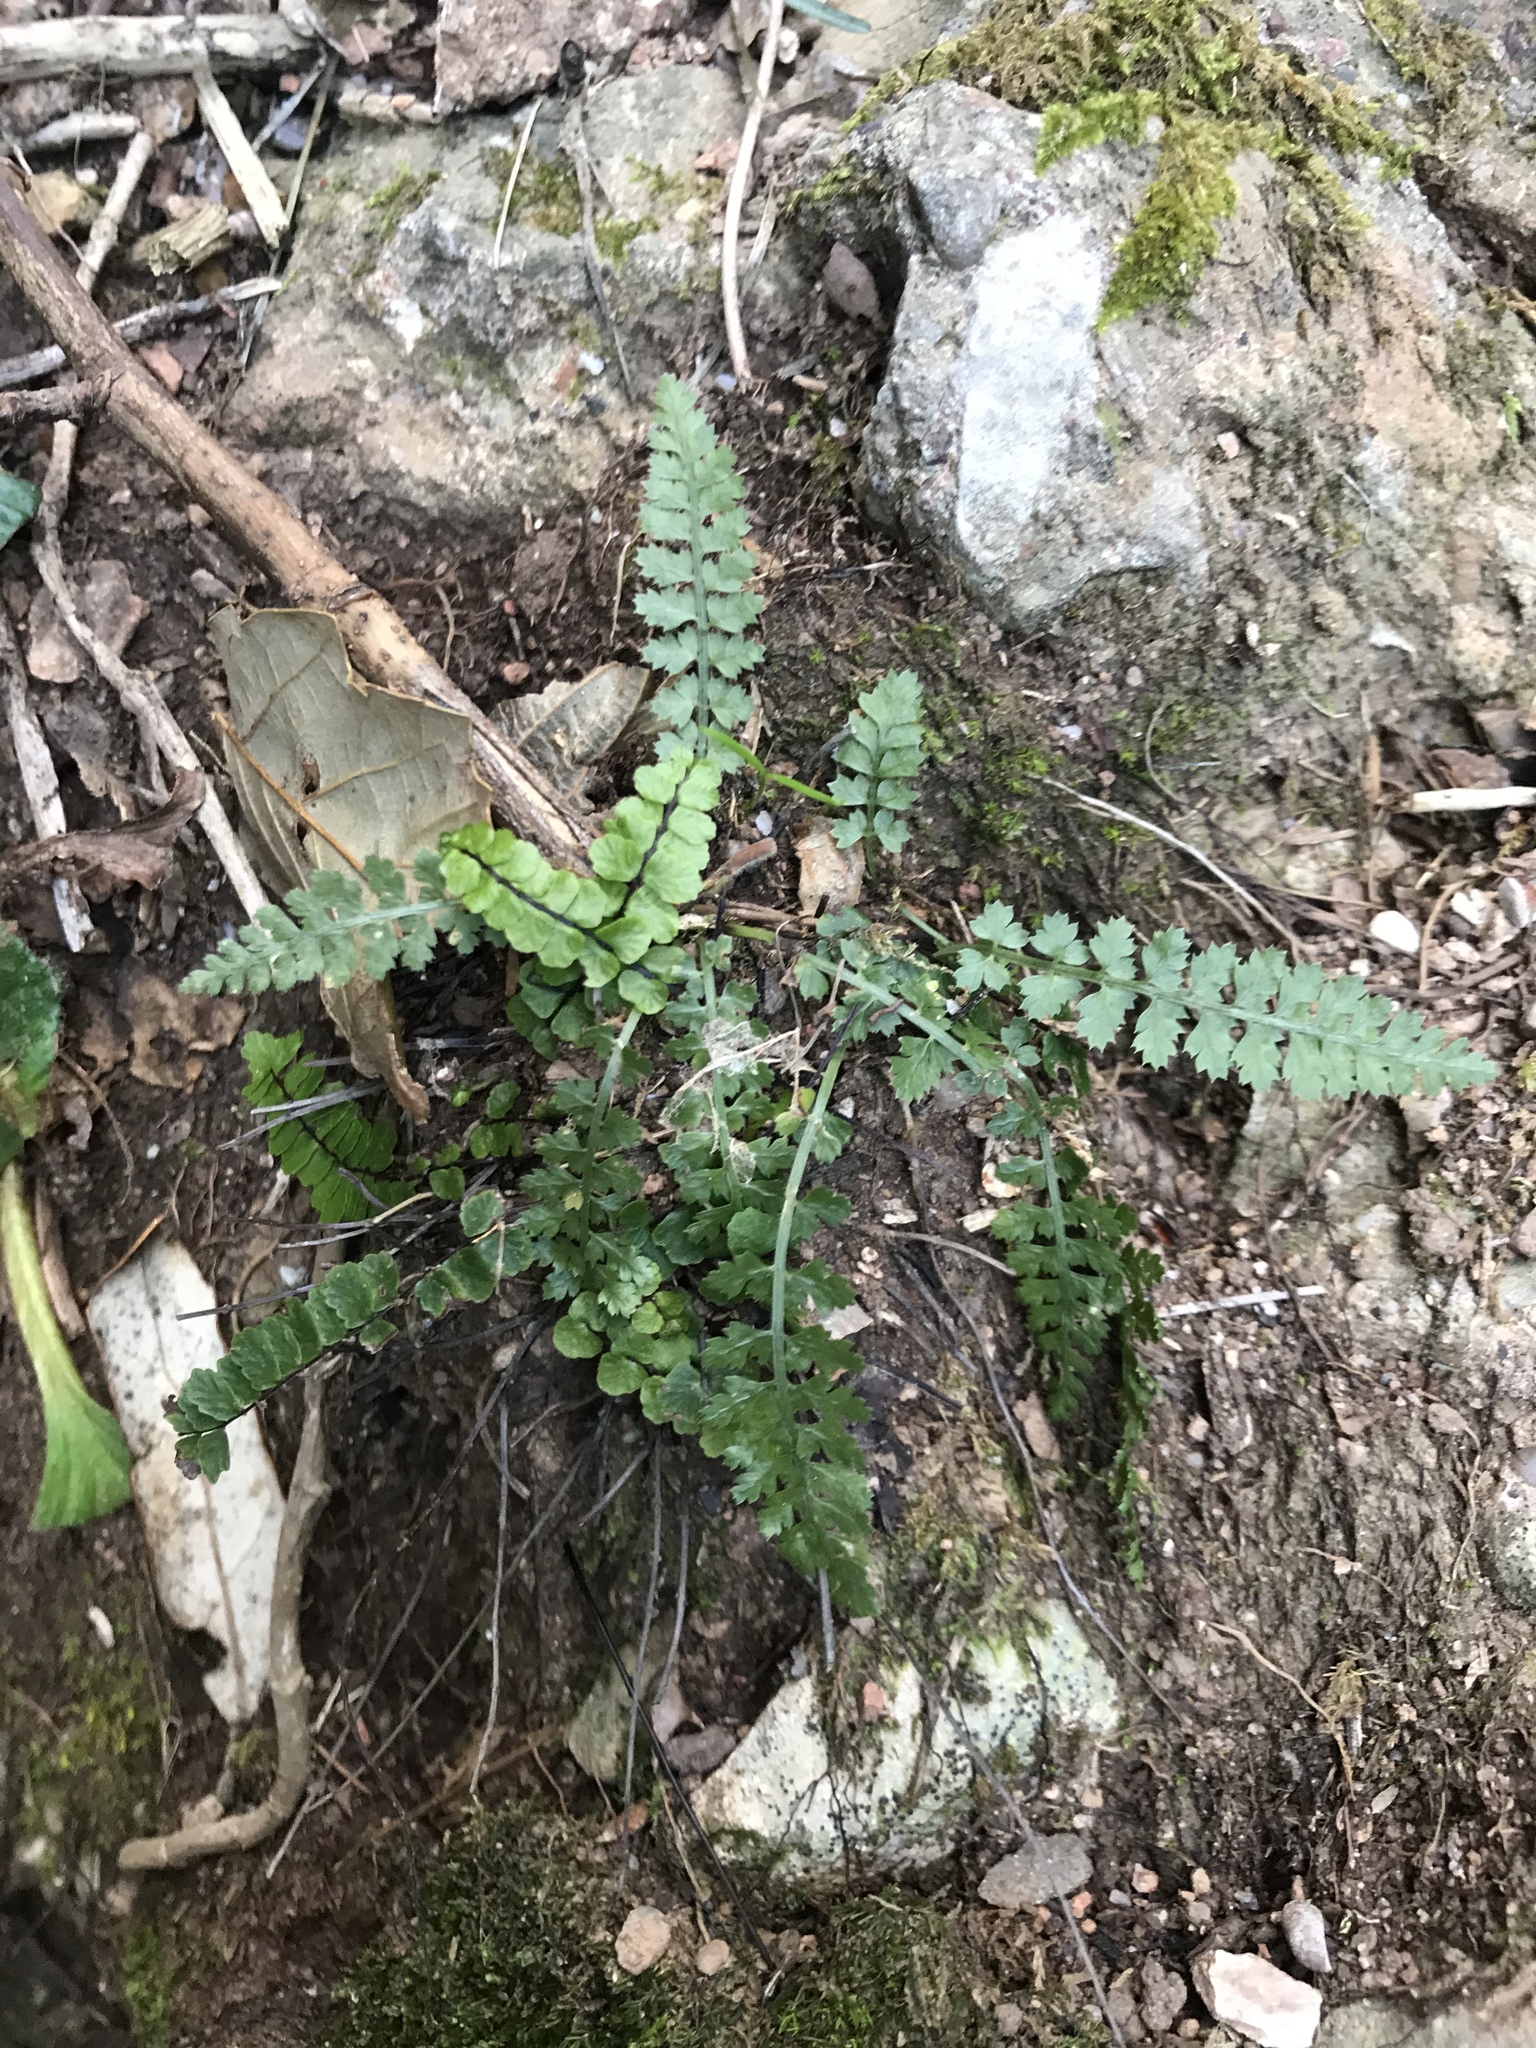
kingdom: Plantae
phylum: Tracheophyta
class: Polypodiopsida
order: Polypodiales
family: Aspleniaceae
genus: Asplenium
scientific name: Asplenium fontanum
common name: Fountain spleenwort
